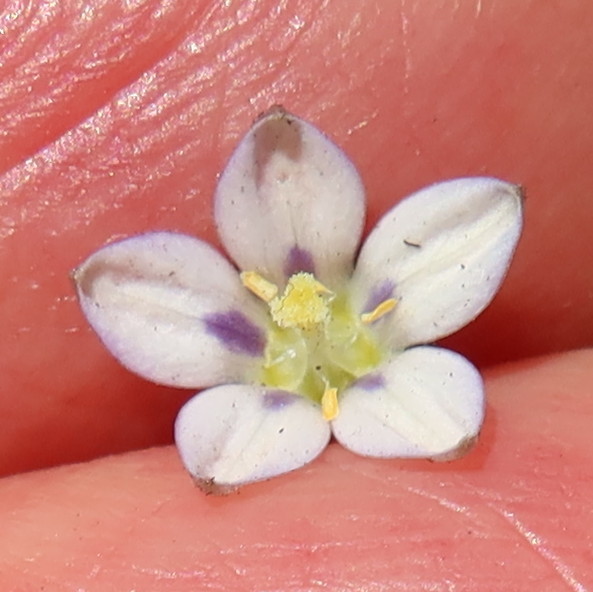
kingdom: Plantae
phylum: Tracheophyta
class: Magnoliopsida
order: Asterales
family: Campanulaceae
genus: Wahlenbergia
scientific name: Wahlenbergia androsacea
